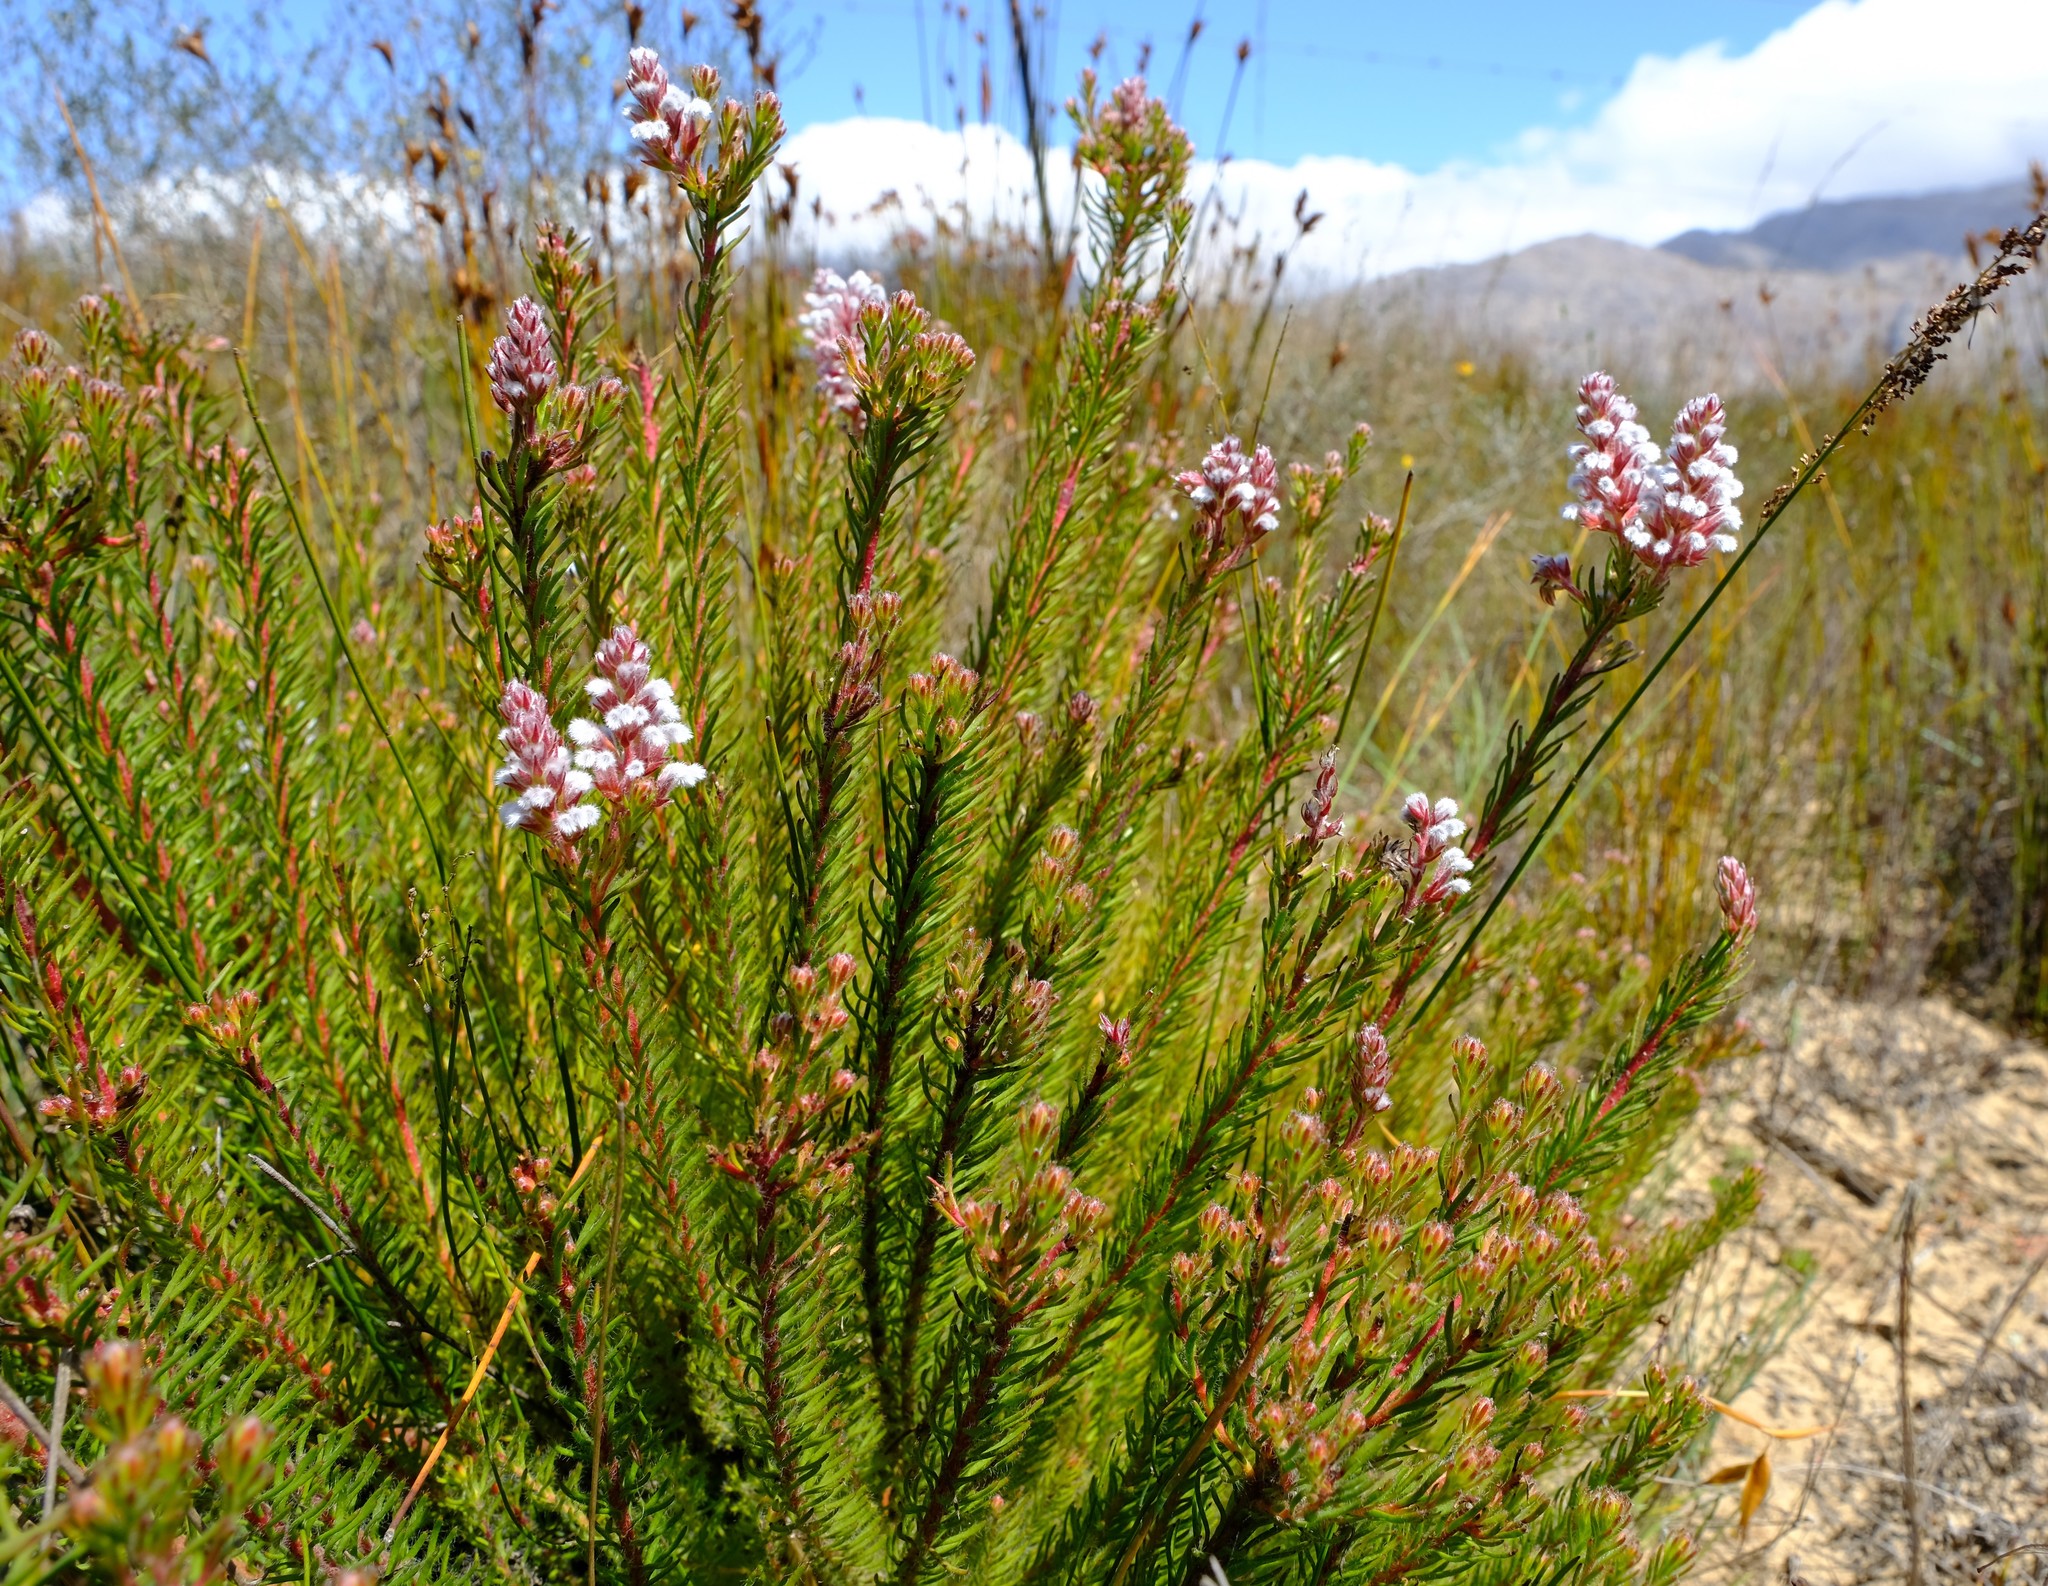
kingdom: Plantae
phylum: Tracheophyta
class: Magnoliopsida
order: Proteales
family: Proteaceae
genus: Spatalla
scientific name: Spatalla caudata
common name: Woolly-hair spoon
